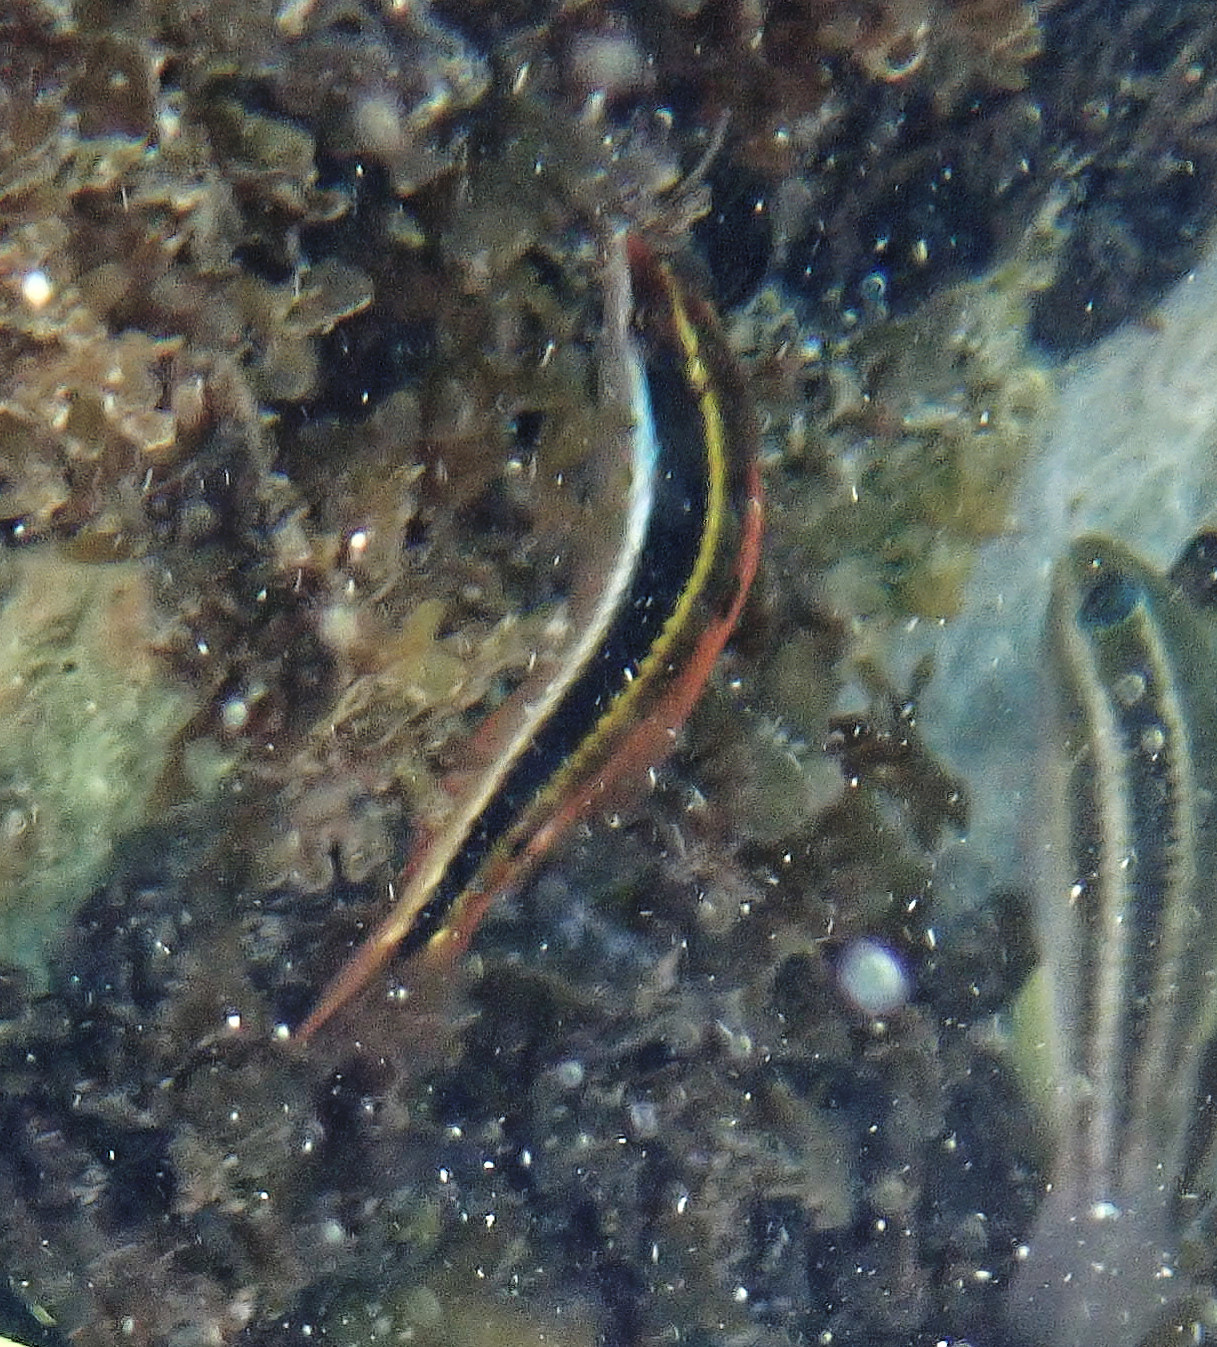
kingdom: Animalia
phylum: Chordata
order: Perciformes
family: Labridae
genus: Halichoeres
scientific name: Halichoeres maculipinna
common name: Clown wrasse
